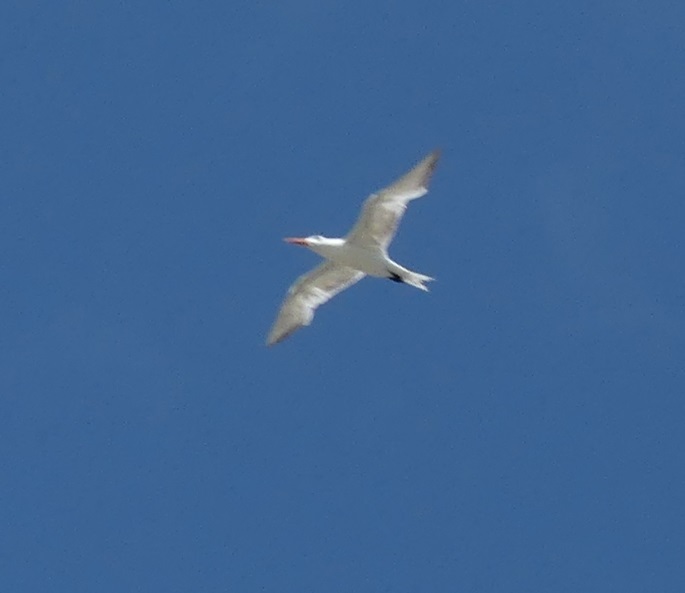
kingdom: Animalia
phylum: Chordata
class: Aves
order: Charadriiformes
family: Laridae
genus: Thalasseus
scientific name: Thalasseus maximus
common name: Royal tern
